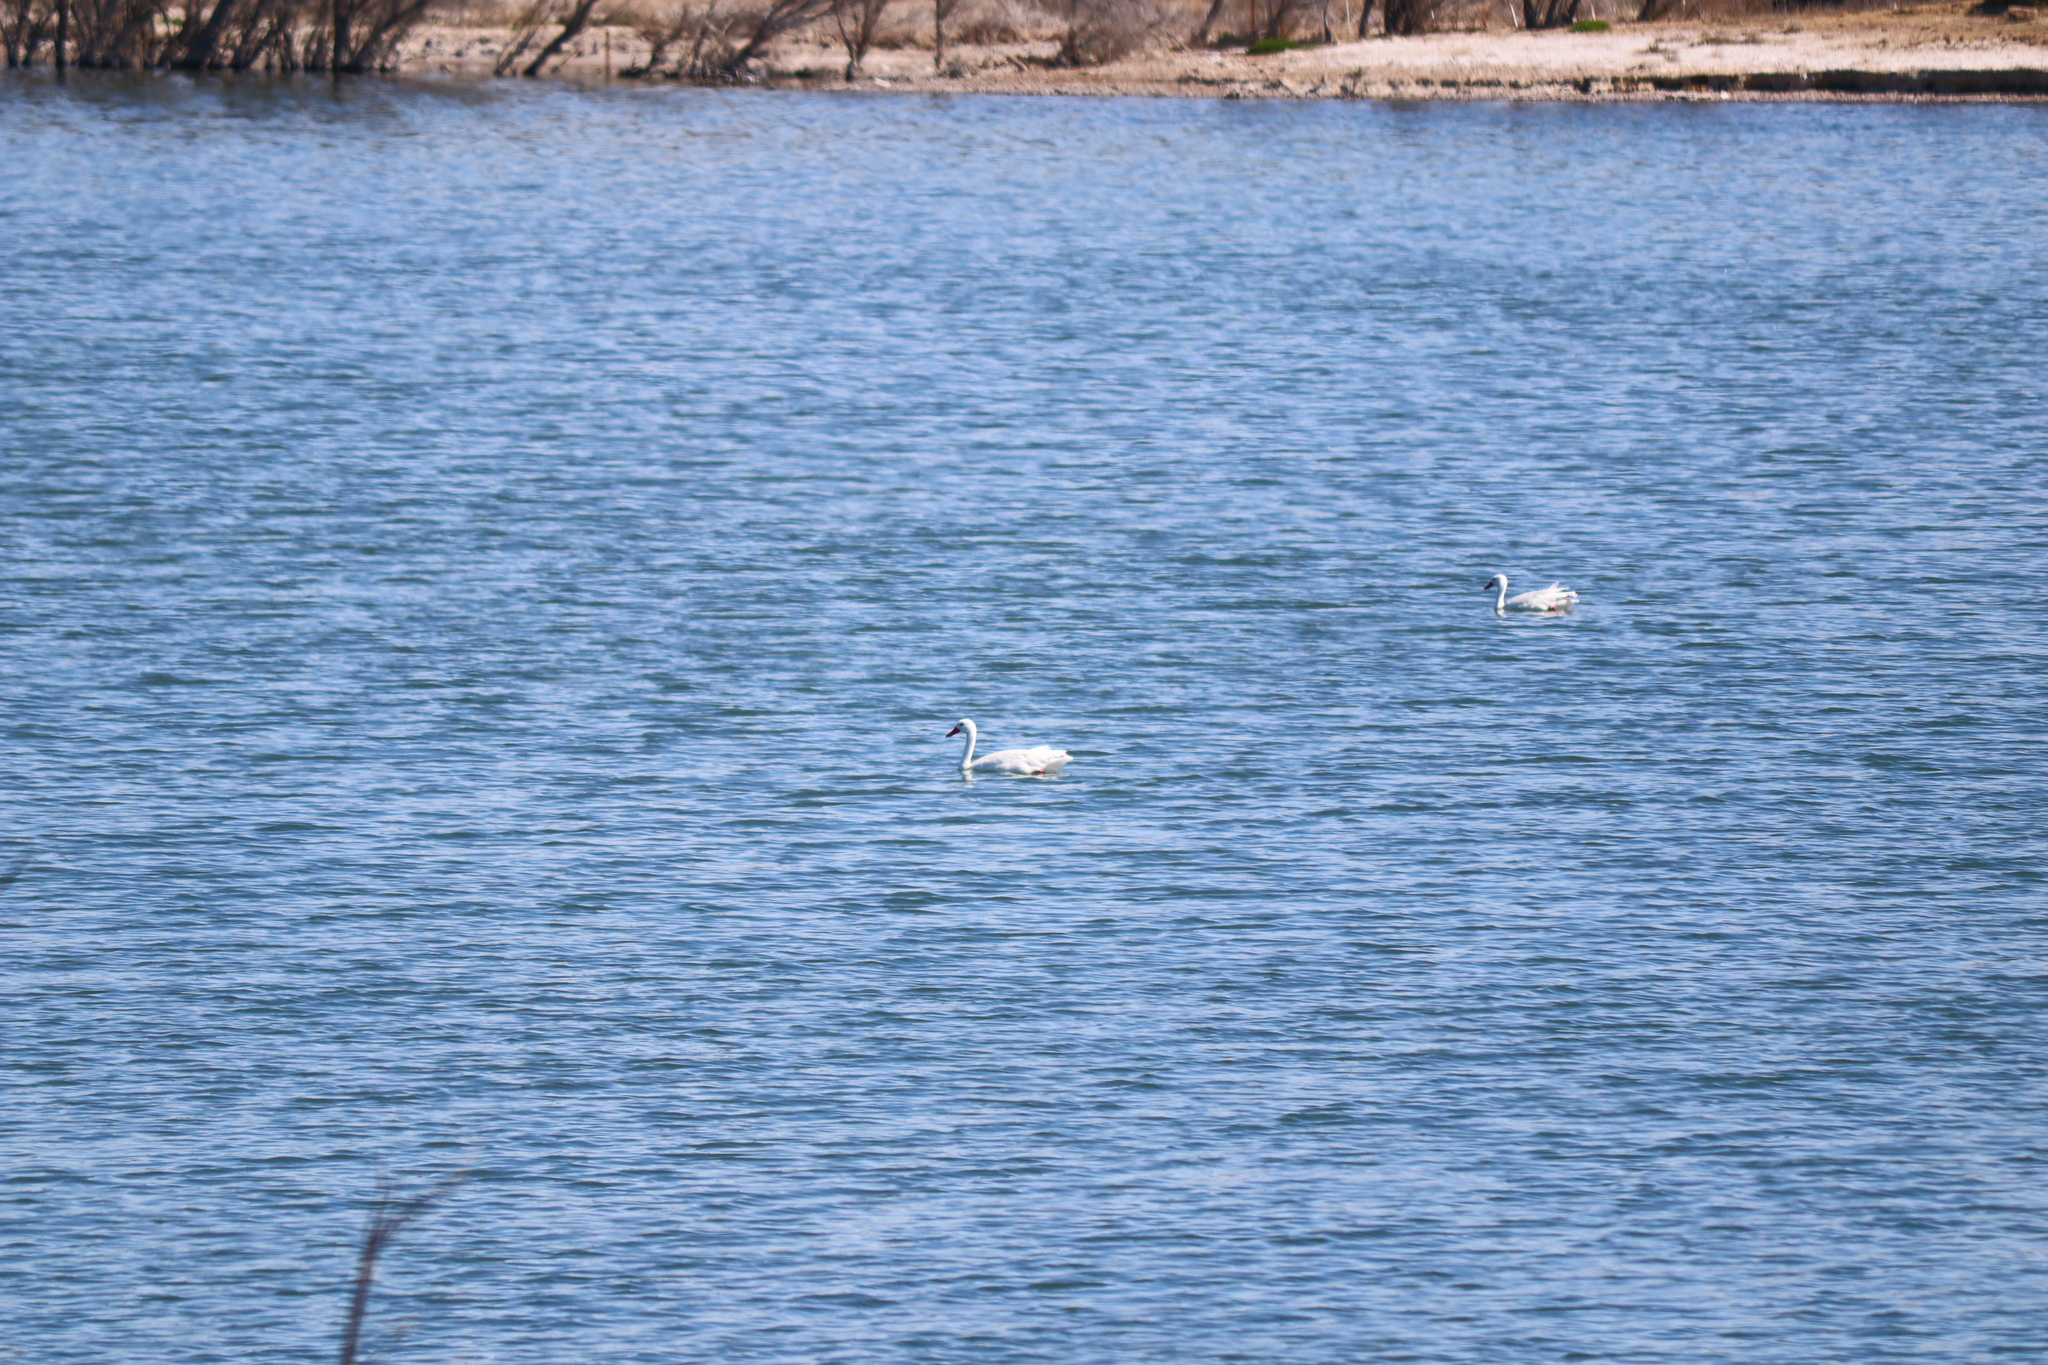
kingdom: Animalia
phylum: Chordata
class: Aves
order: Anseriformes
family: Anatidae
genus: Coscoroba
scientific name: Coscoroba coscoroba
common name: Coscoroba swan
